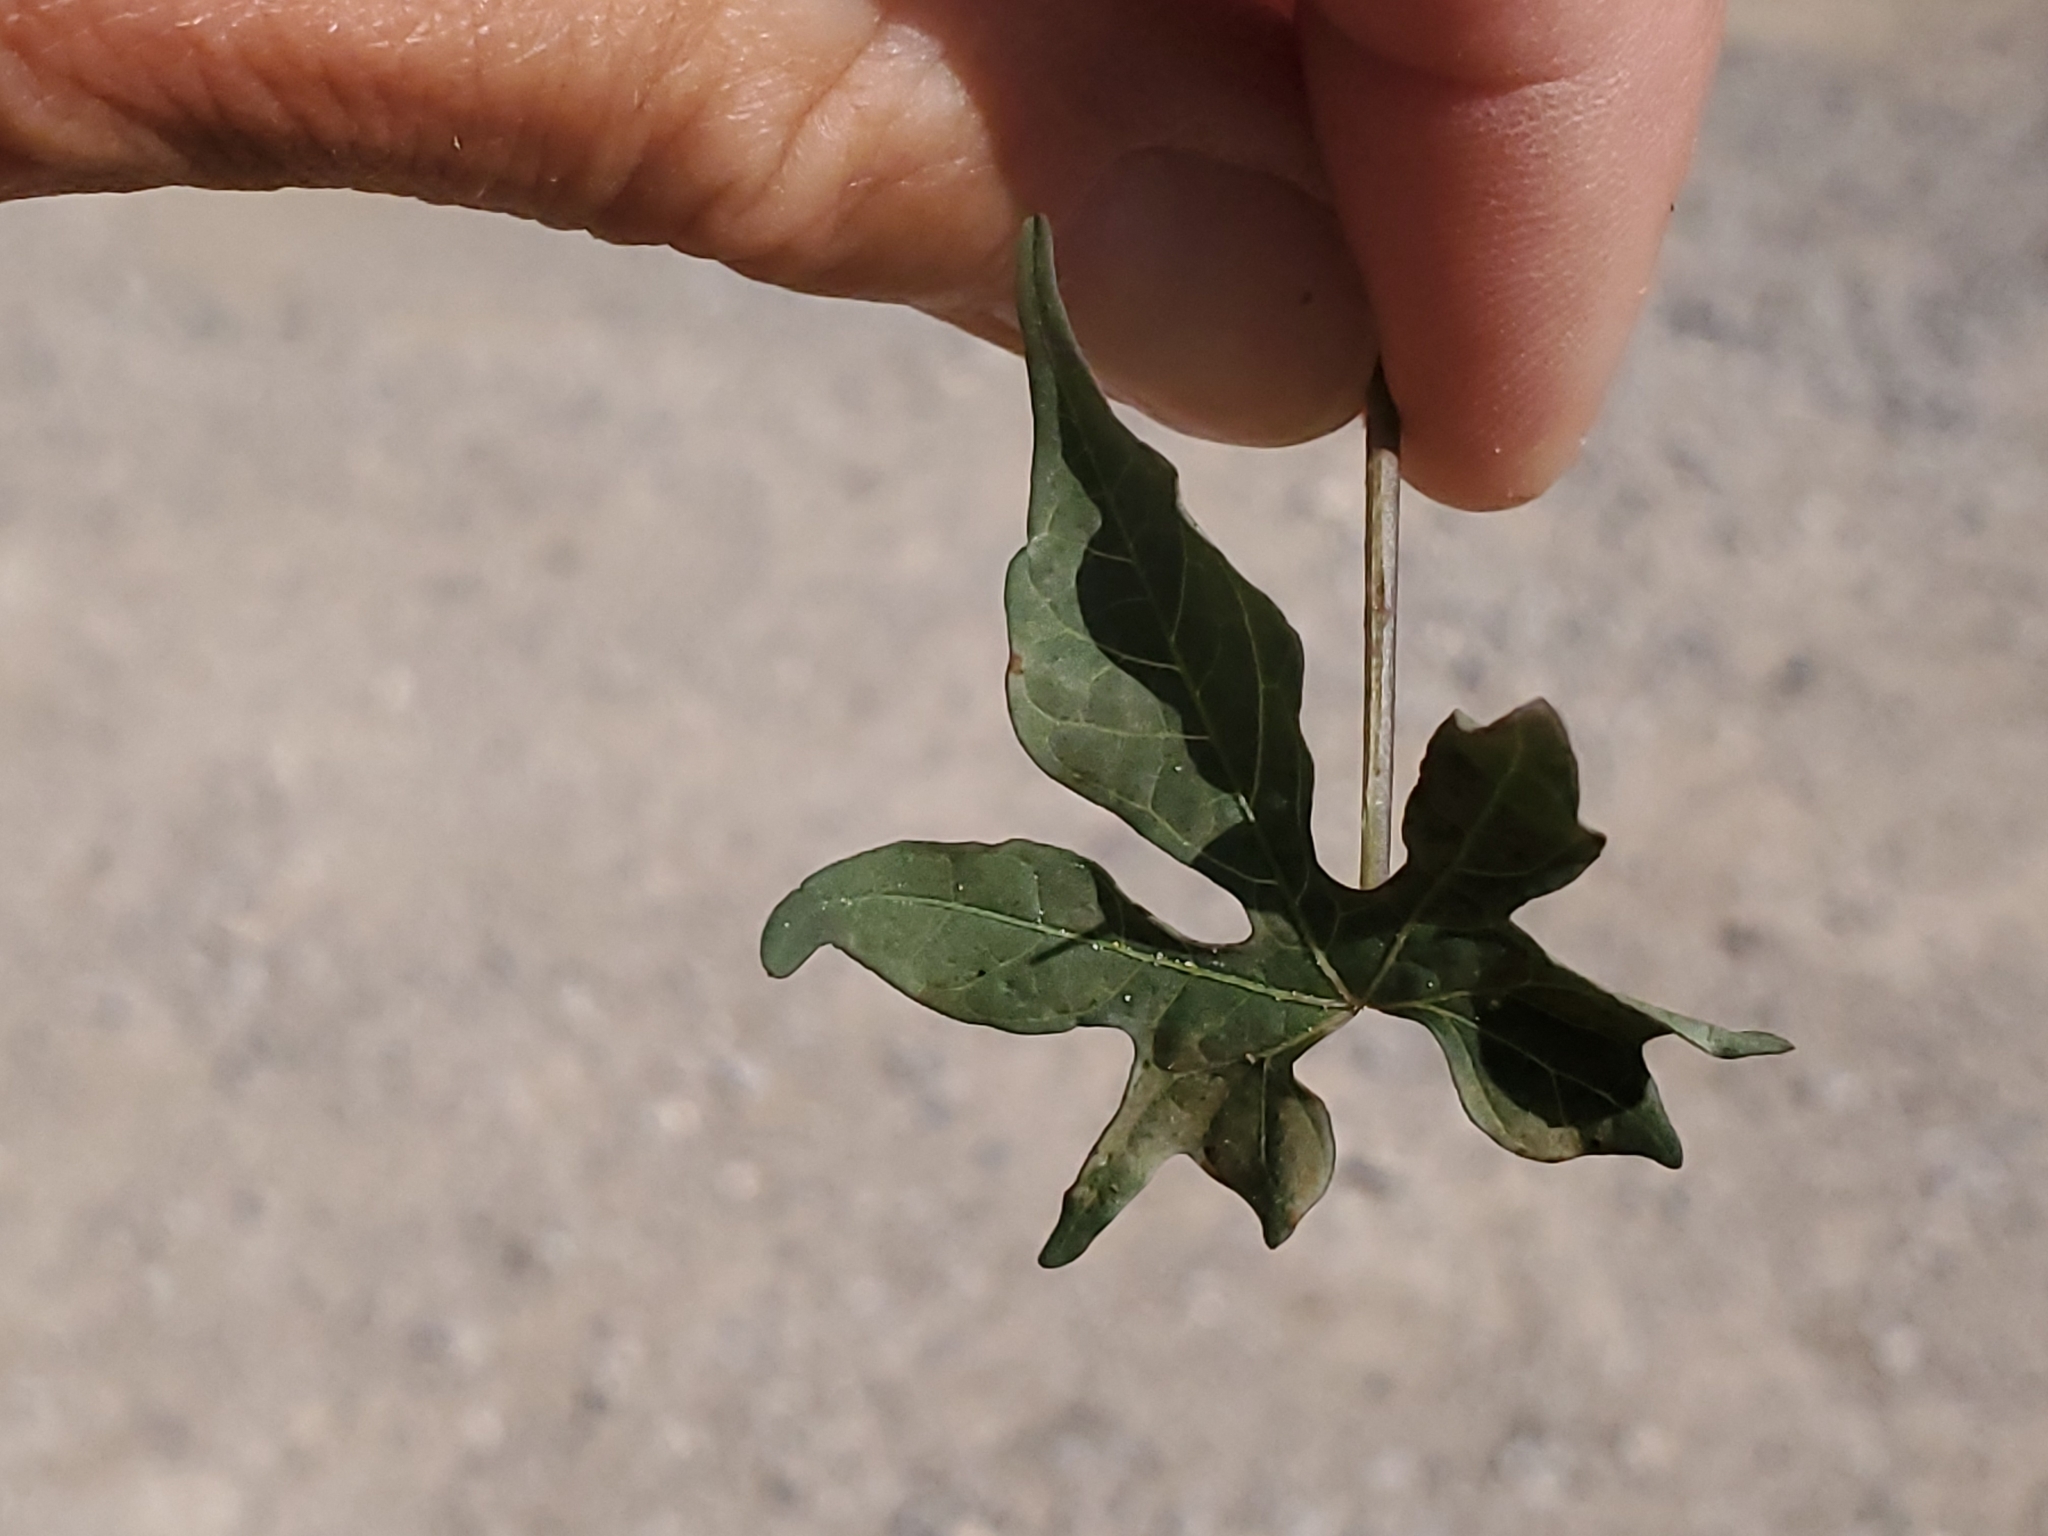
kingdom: Plantae
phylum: Tracheophyta
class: Magnoliopsida
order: Solanales
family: Convolvulaceae
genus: Ipomoea
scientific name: Ipomoea cristulata
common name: Trans-pecos morning-glory
